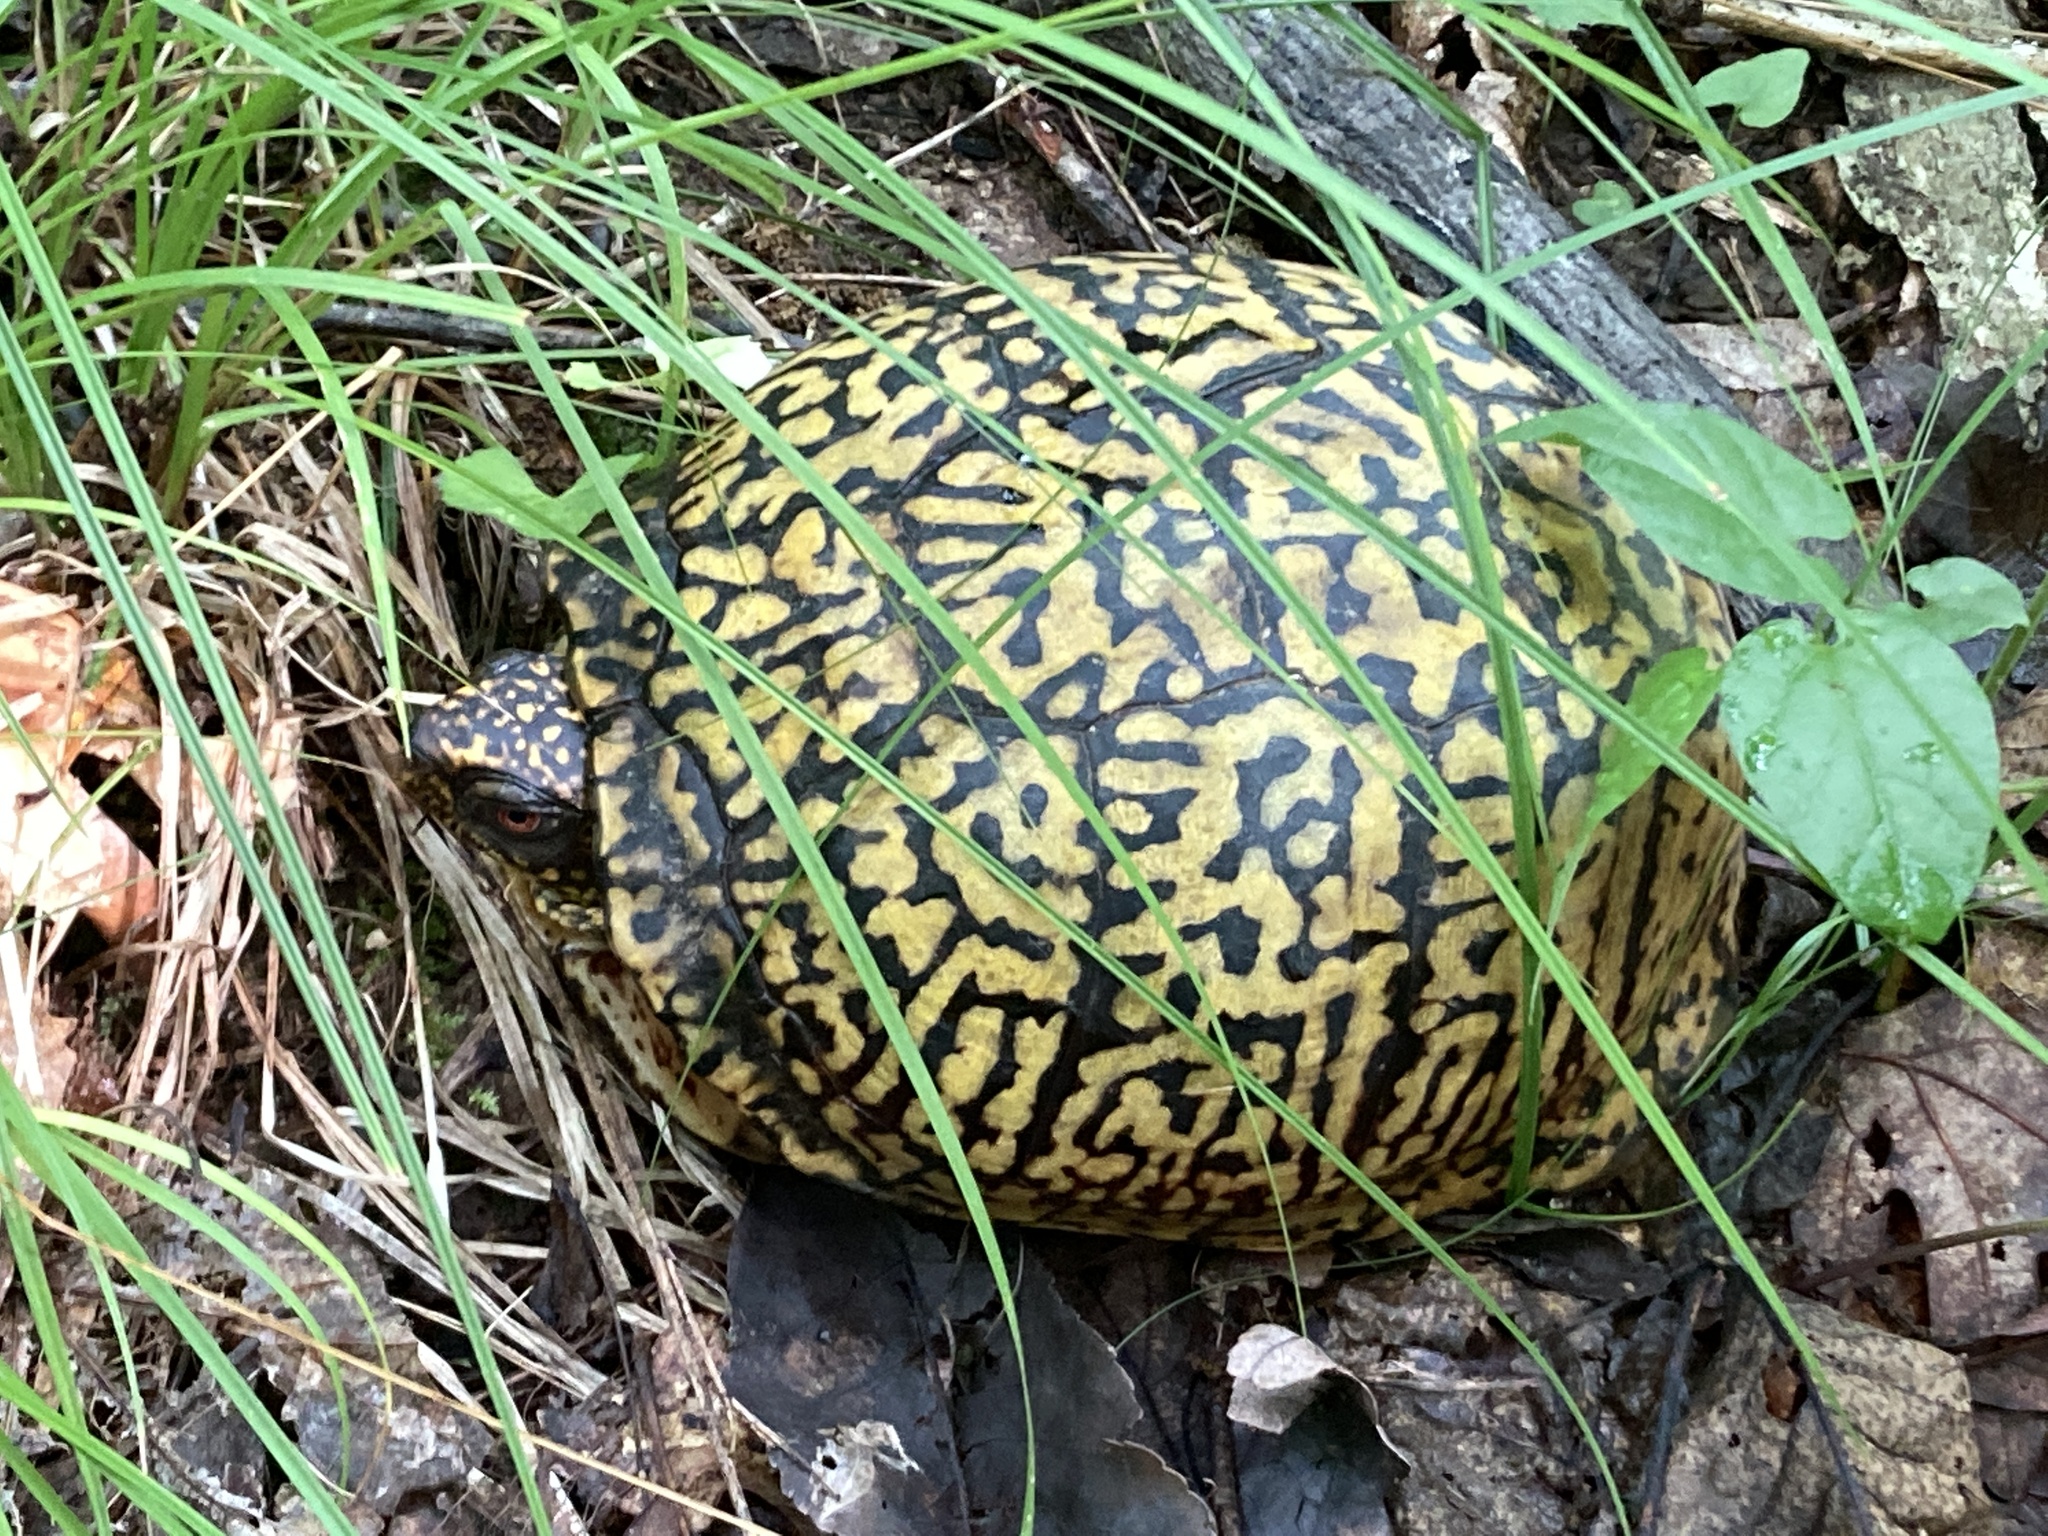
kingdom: Animalia
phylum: Chordata
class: Testudines
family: Emydidae
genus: Terrapene
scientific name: Terrapene carolina
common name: Common box turtle
